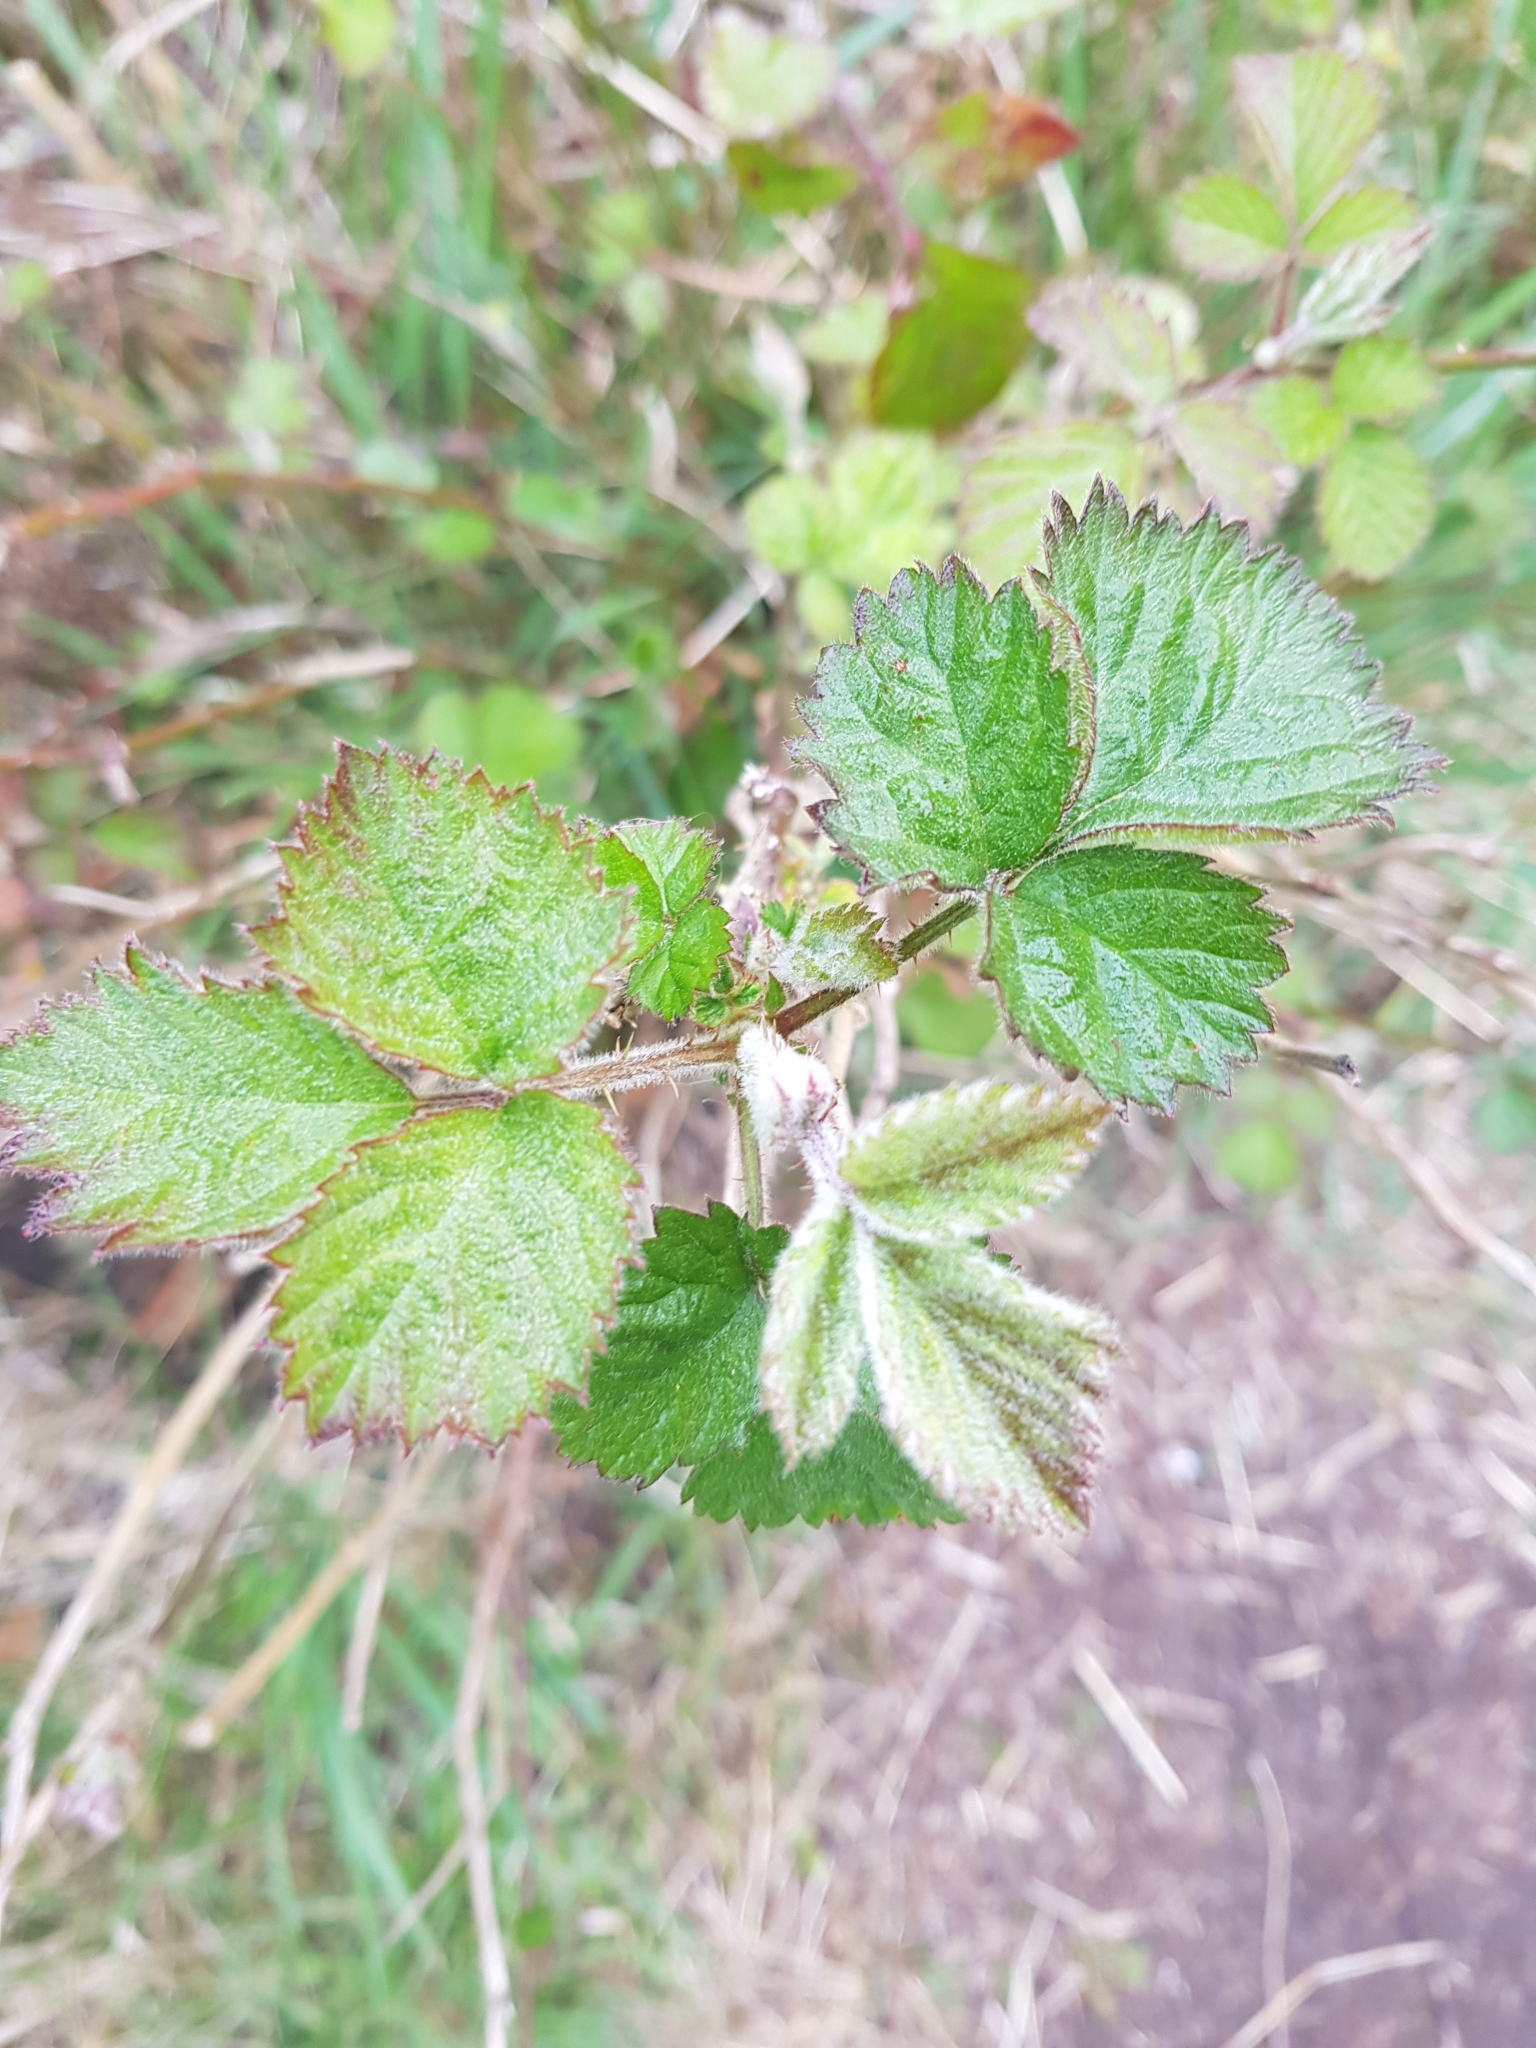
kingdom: Plantae
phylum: Tracheophyta
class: Magnoliopsida
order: Rosales
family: Rosaceae
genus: Rubus
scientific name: Rubus
